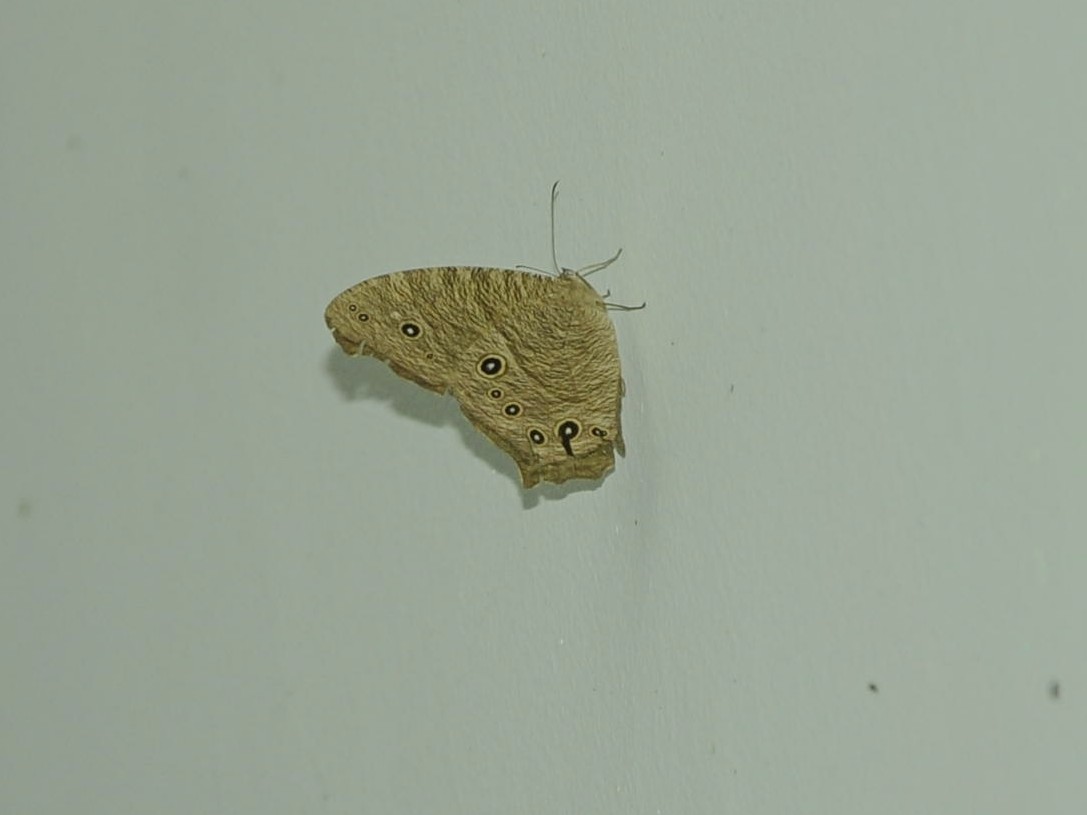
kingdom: Animalia
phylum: Arthropoda
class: Insecta
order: Lepidoptera
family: Nymphalidae
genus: Melanitis
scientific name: Melanitis leda
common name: Twilight brown
